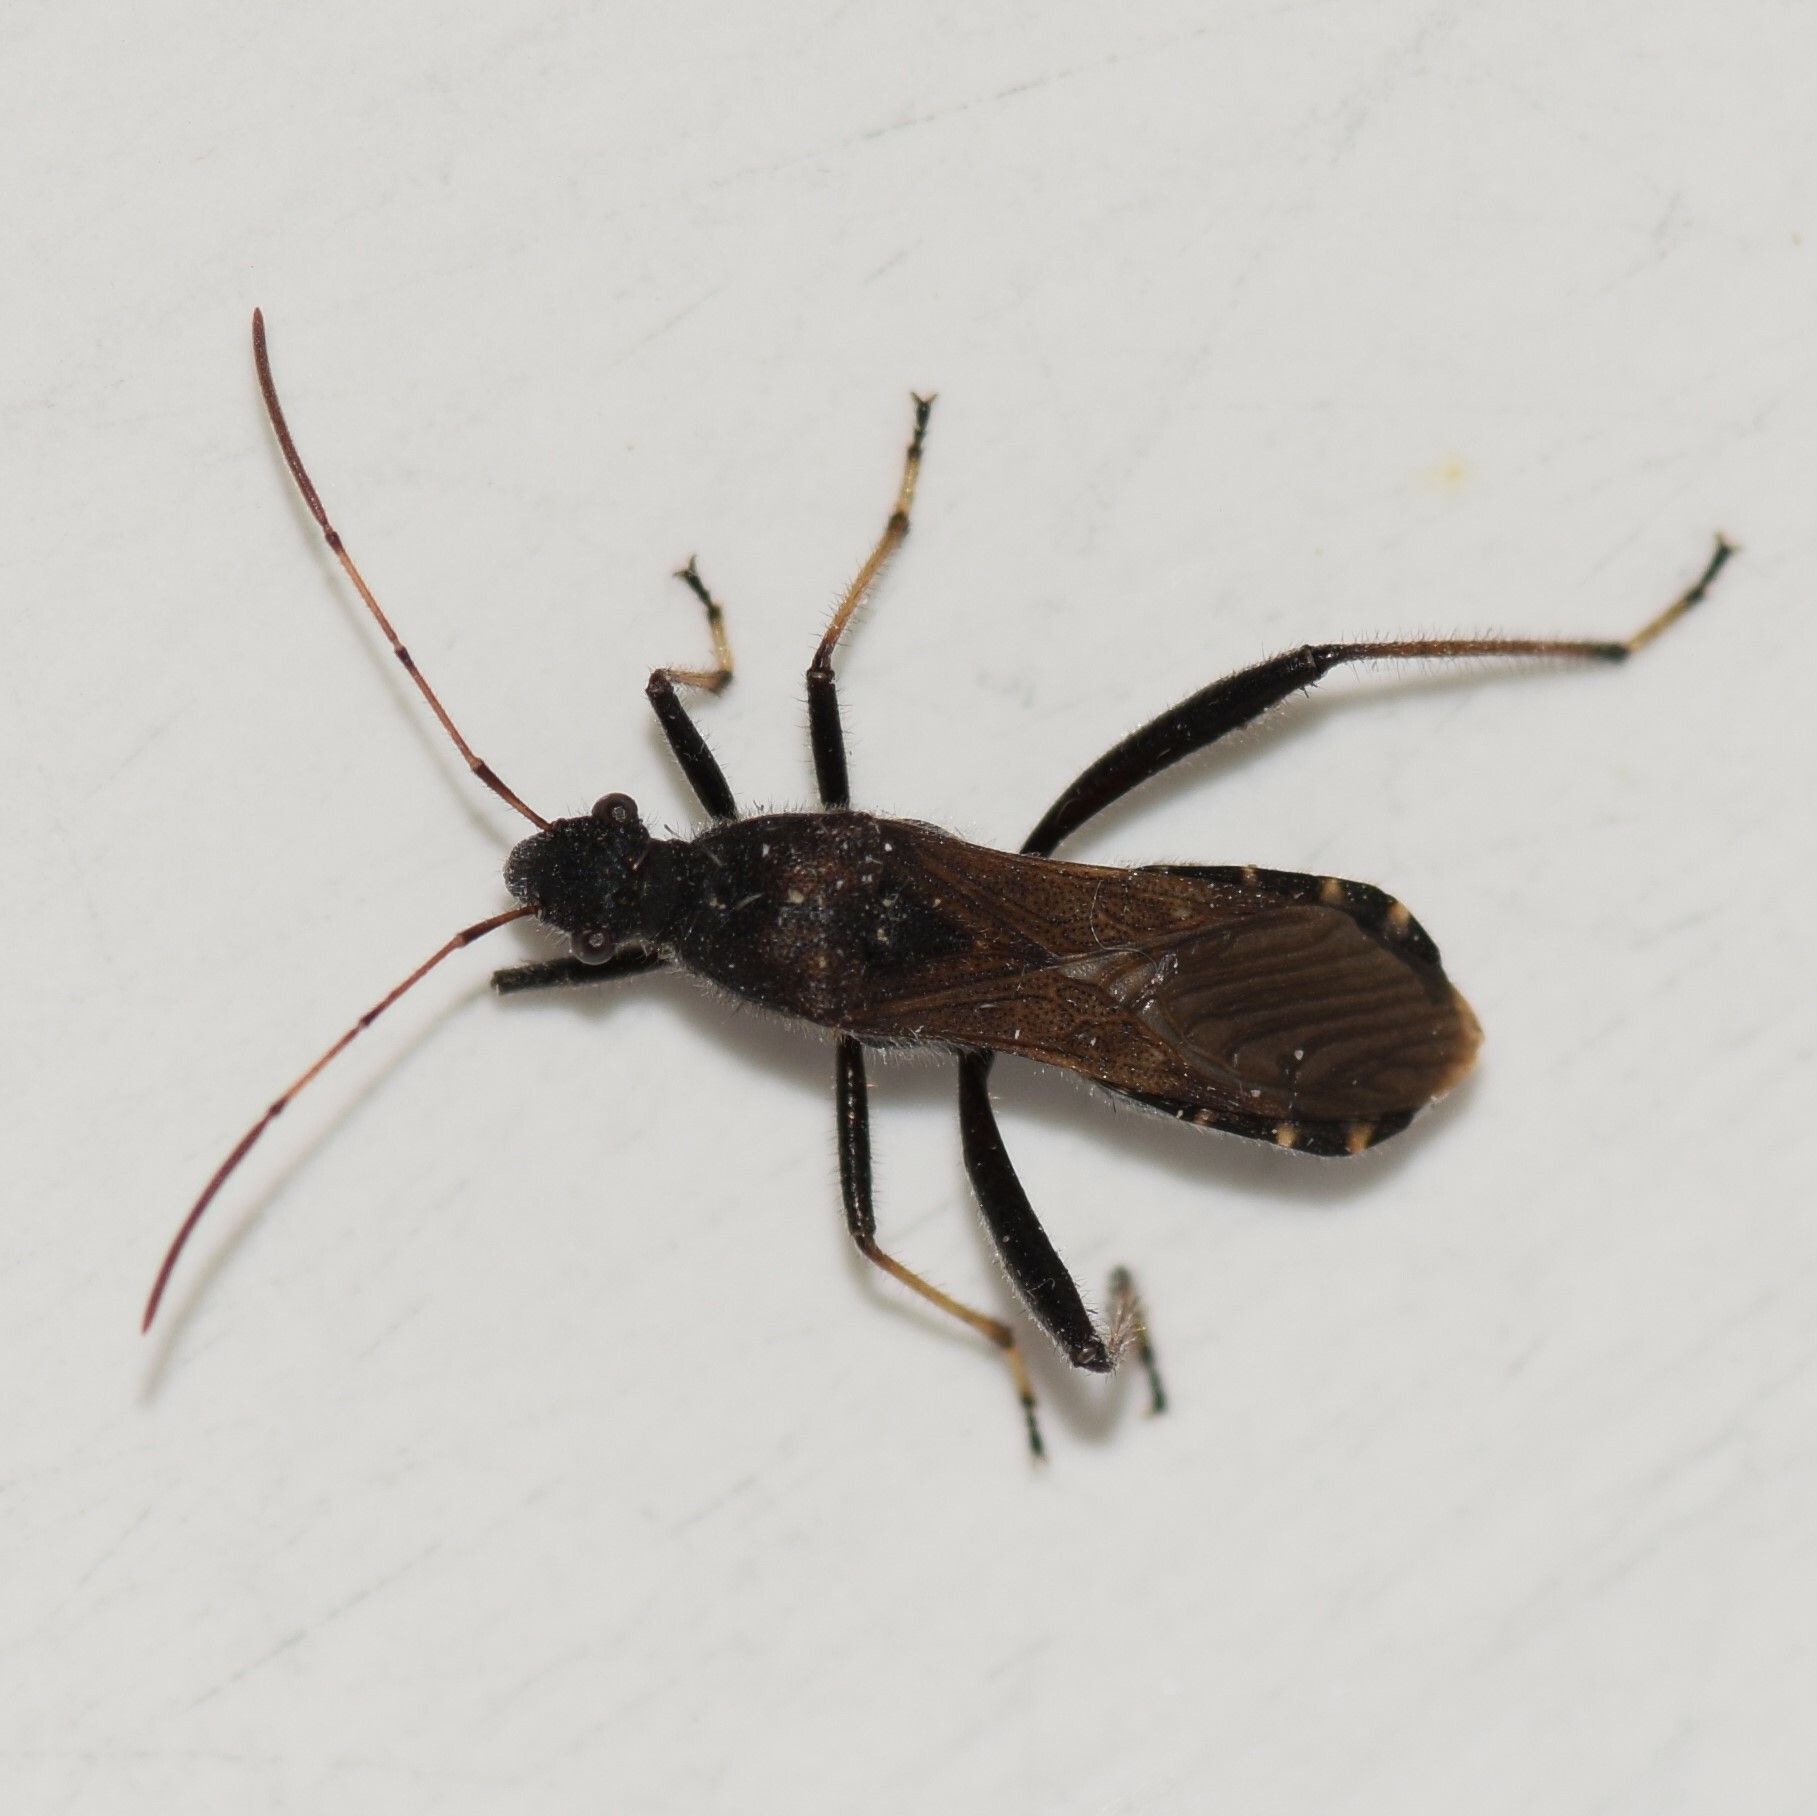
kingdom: Animalia
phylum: Arthropoda
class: Insecta
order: Hemiptera
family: Alydidae
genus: Alydus
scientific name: Alydus eurinus
